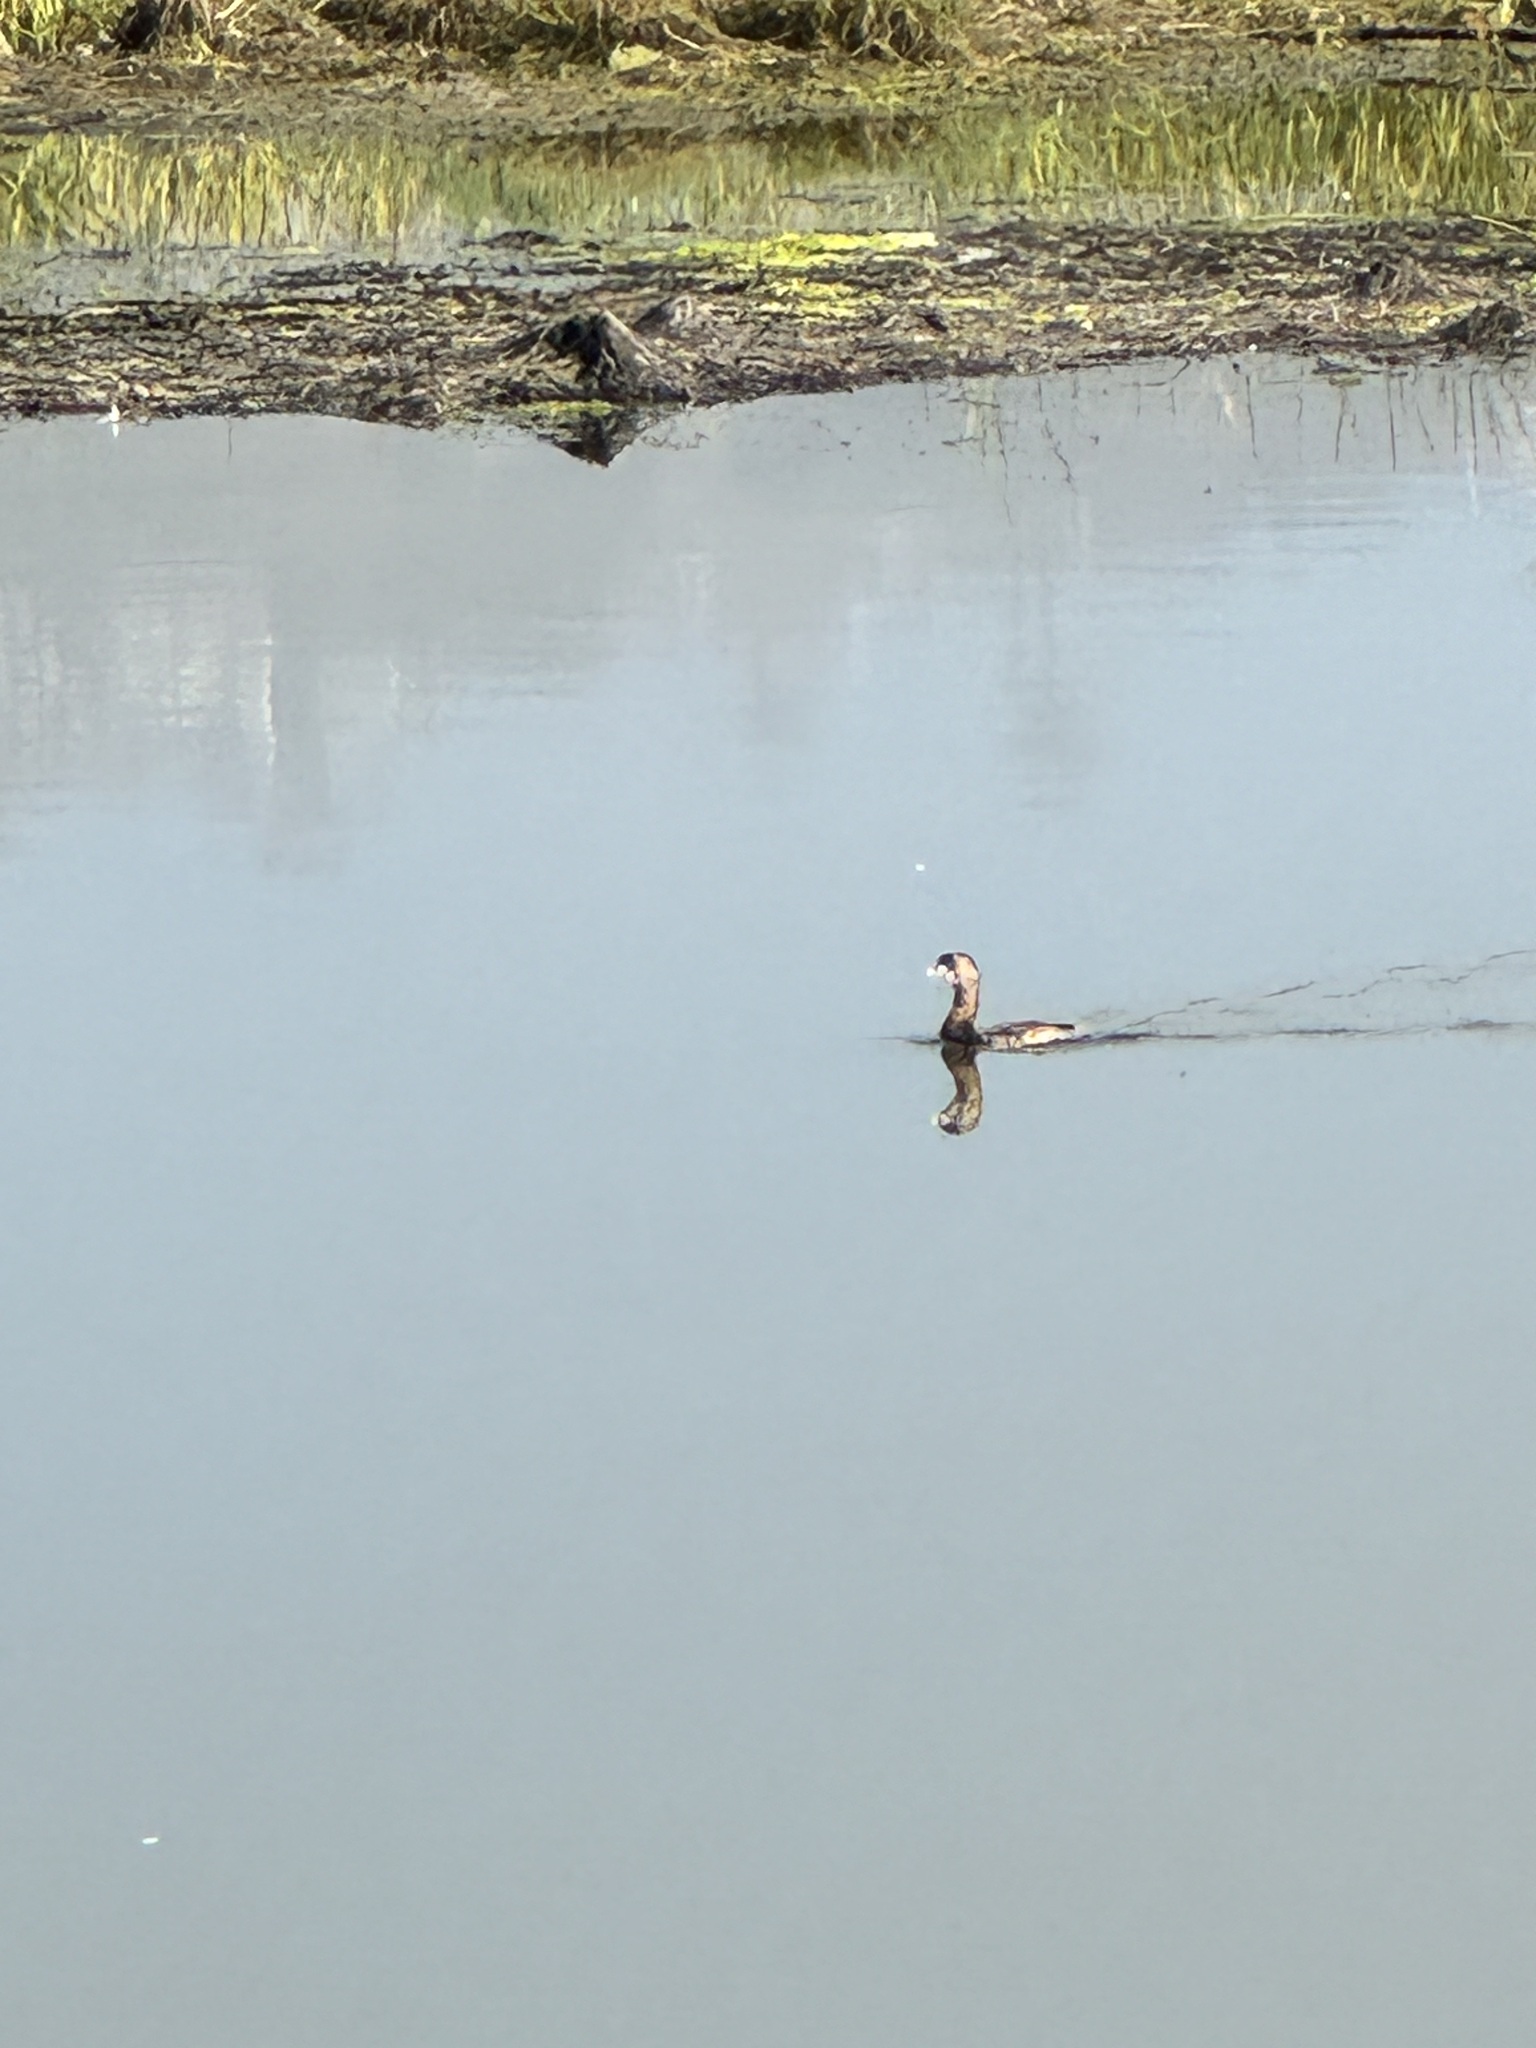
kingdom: Animalia
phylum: Chordata
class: Aves
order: Podicipediformes
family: Podicipedidae
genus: Podilymbus
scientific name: Podilymbus podiceps
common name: Pied-billed grebe
